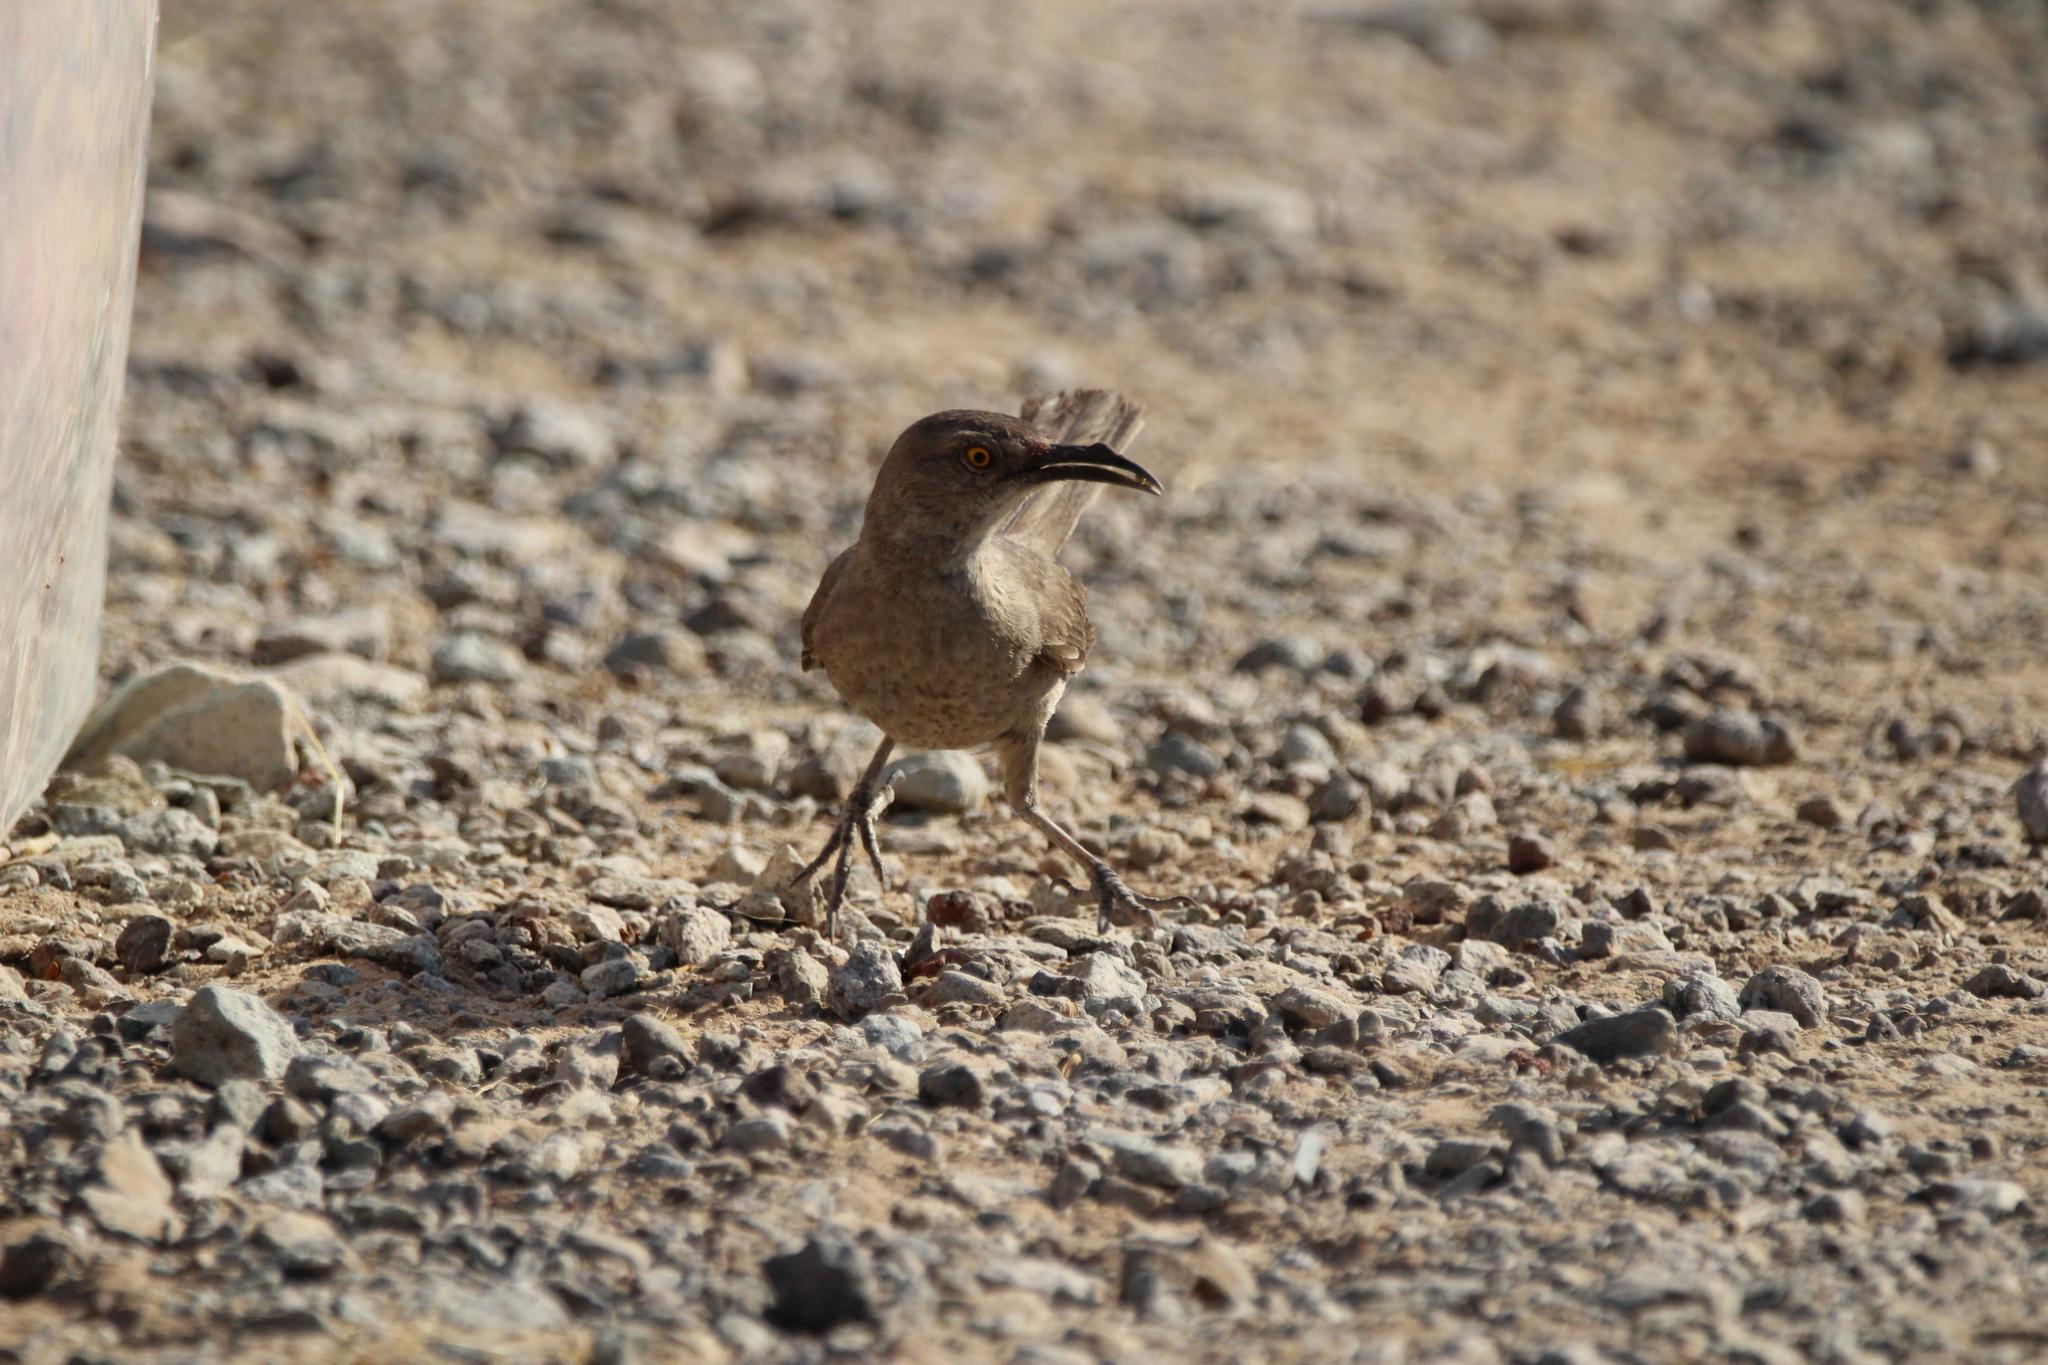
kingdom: Animalia
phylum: Chordata
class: Aves
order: Passeriformes
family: Mimidae
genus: Toxostoma
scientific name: Toxostoma curvirostre
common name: Curve-billed thrasher
